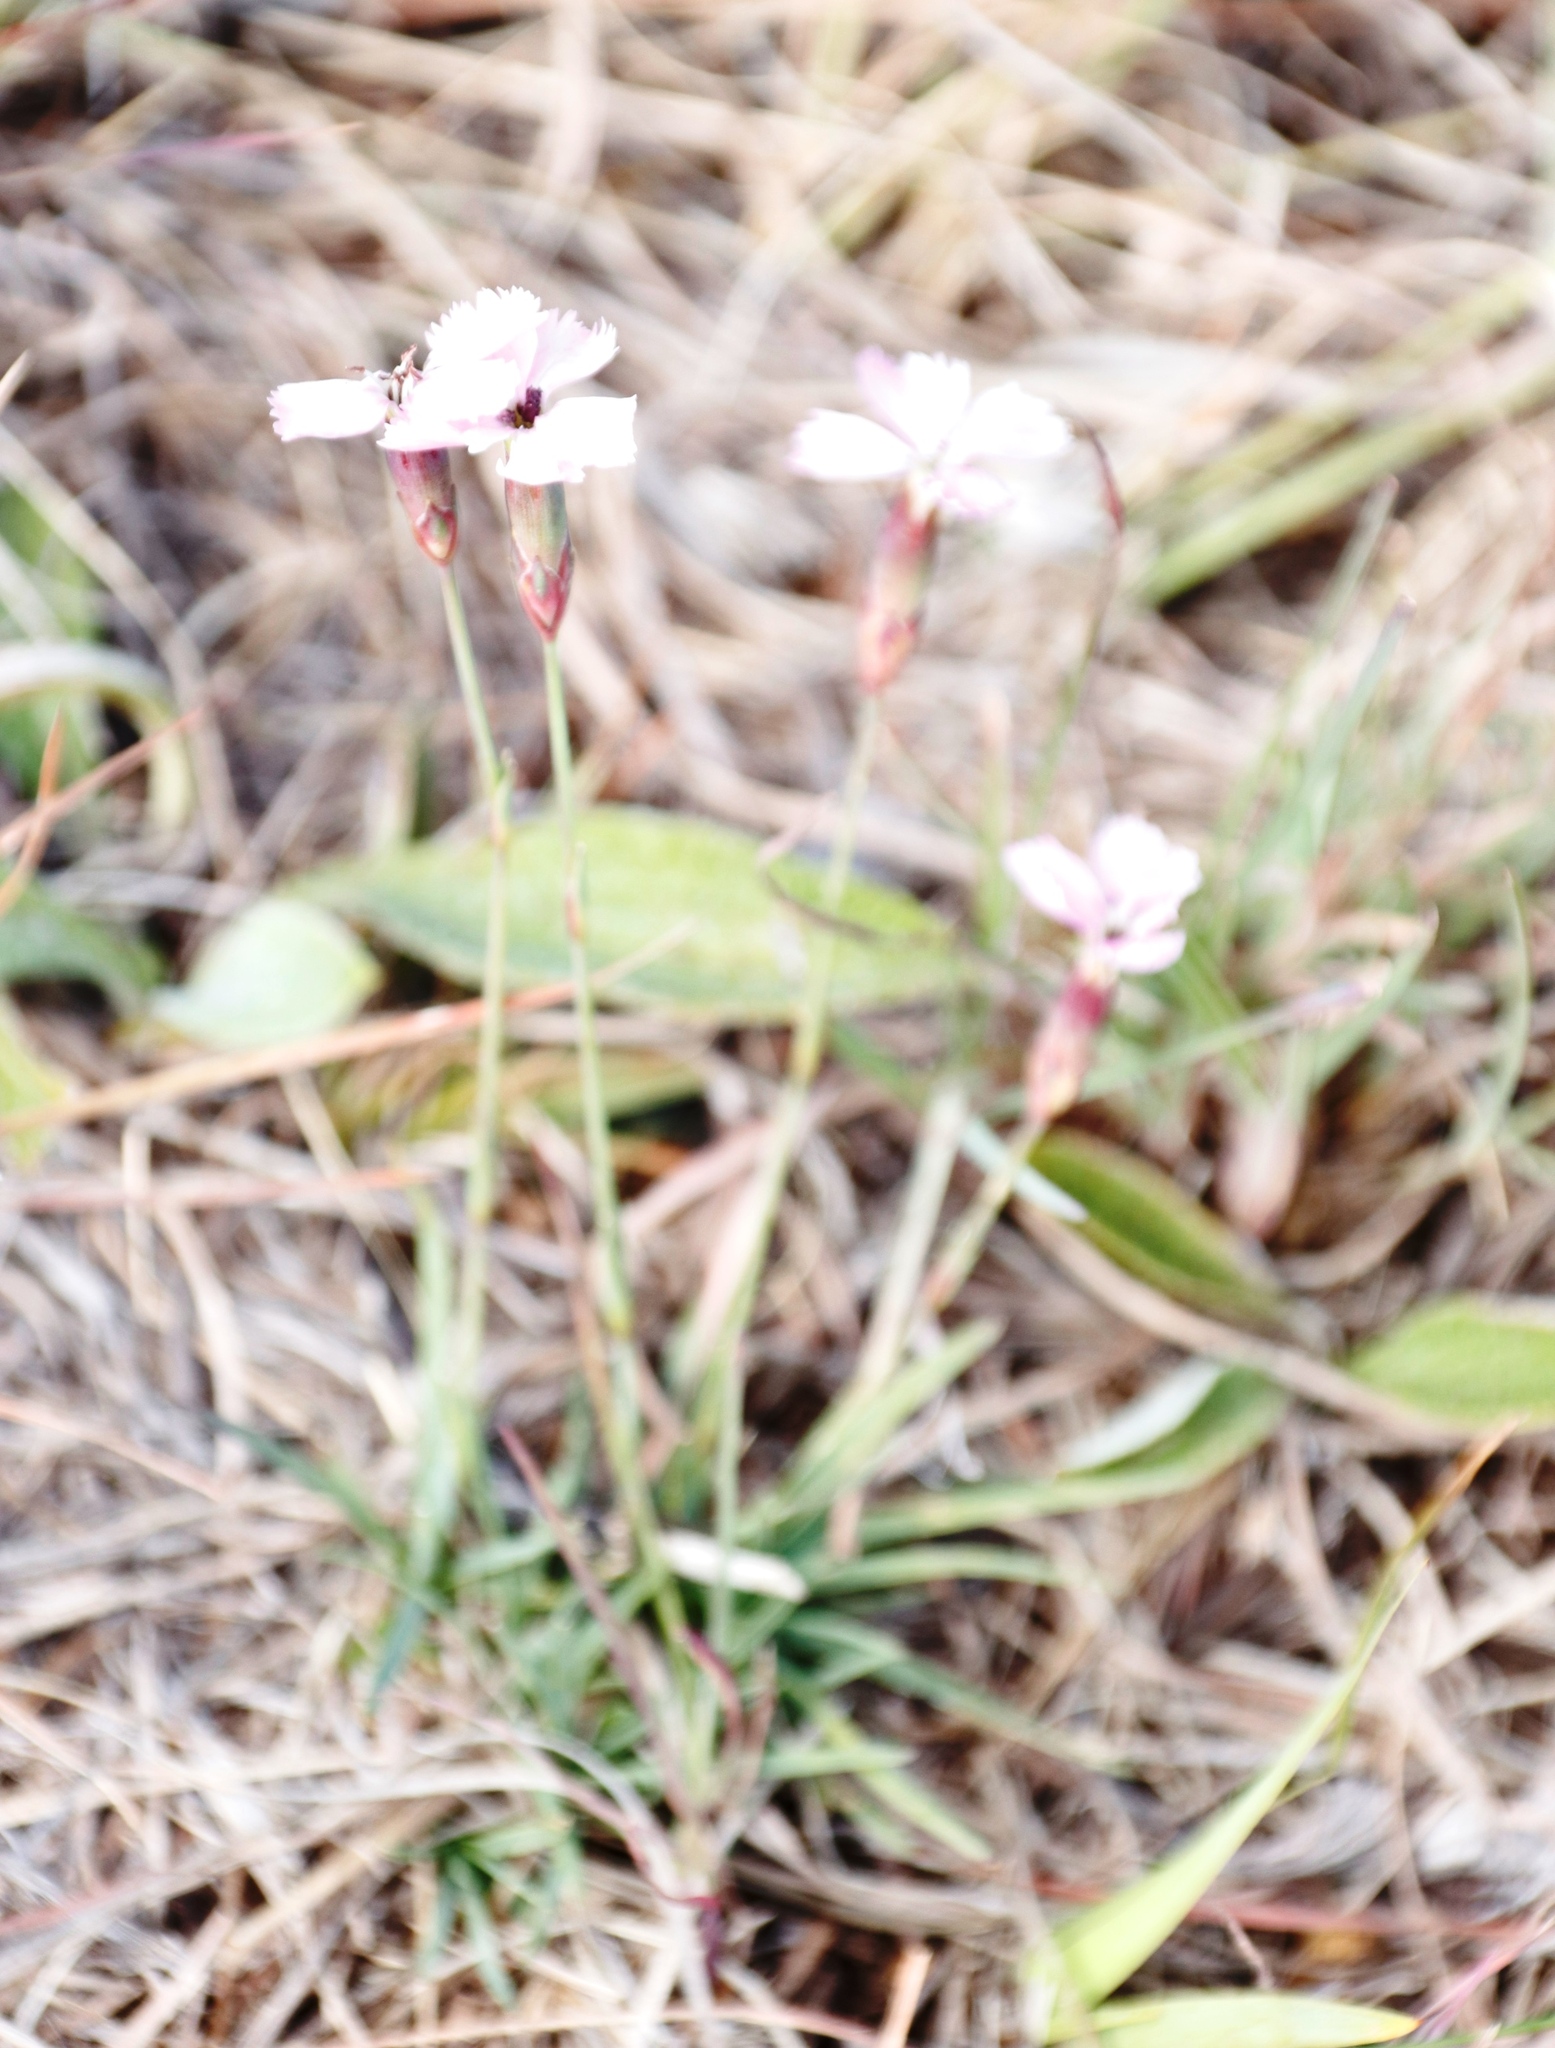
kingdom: Plantae
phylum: Tracheophyta
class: Magnoliopsida
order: Caryophyllales
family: Caryophyllaceae
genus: Dianthus
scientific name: Dianthus basuticus
